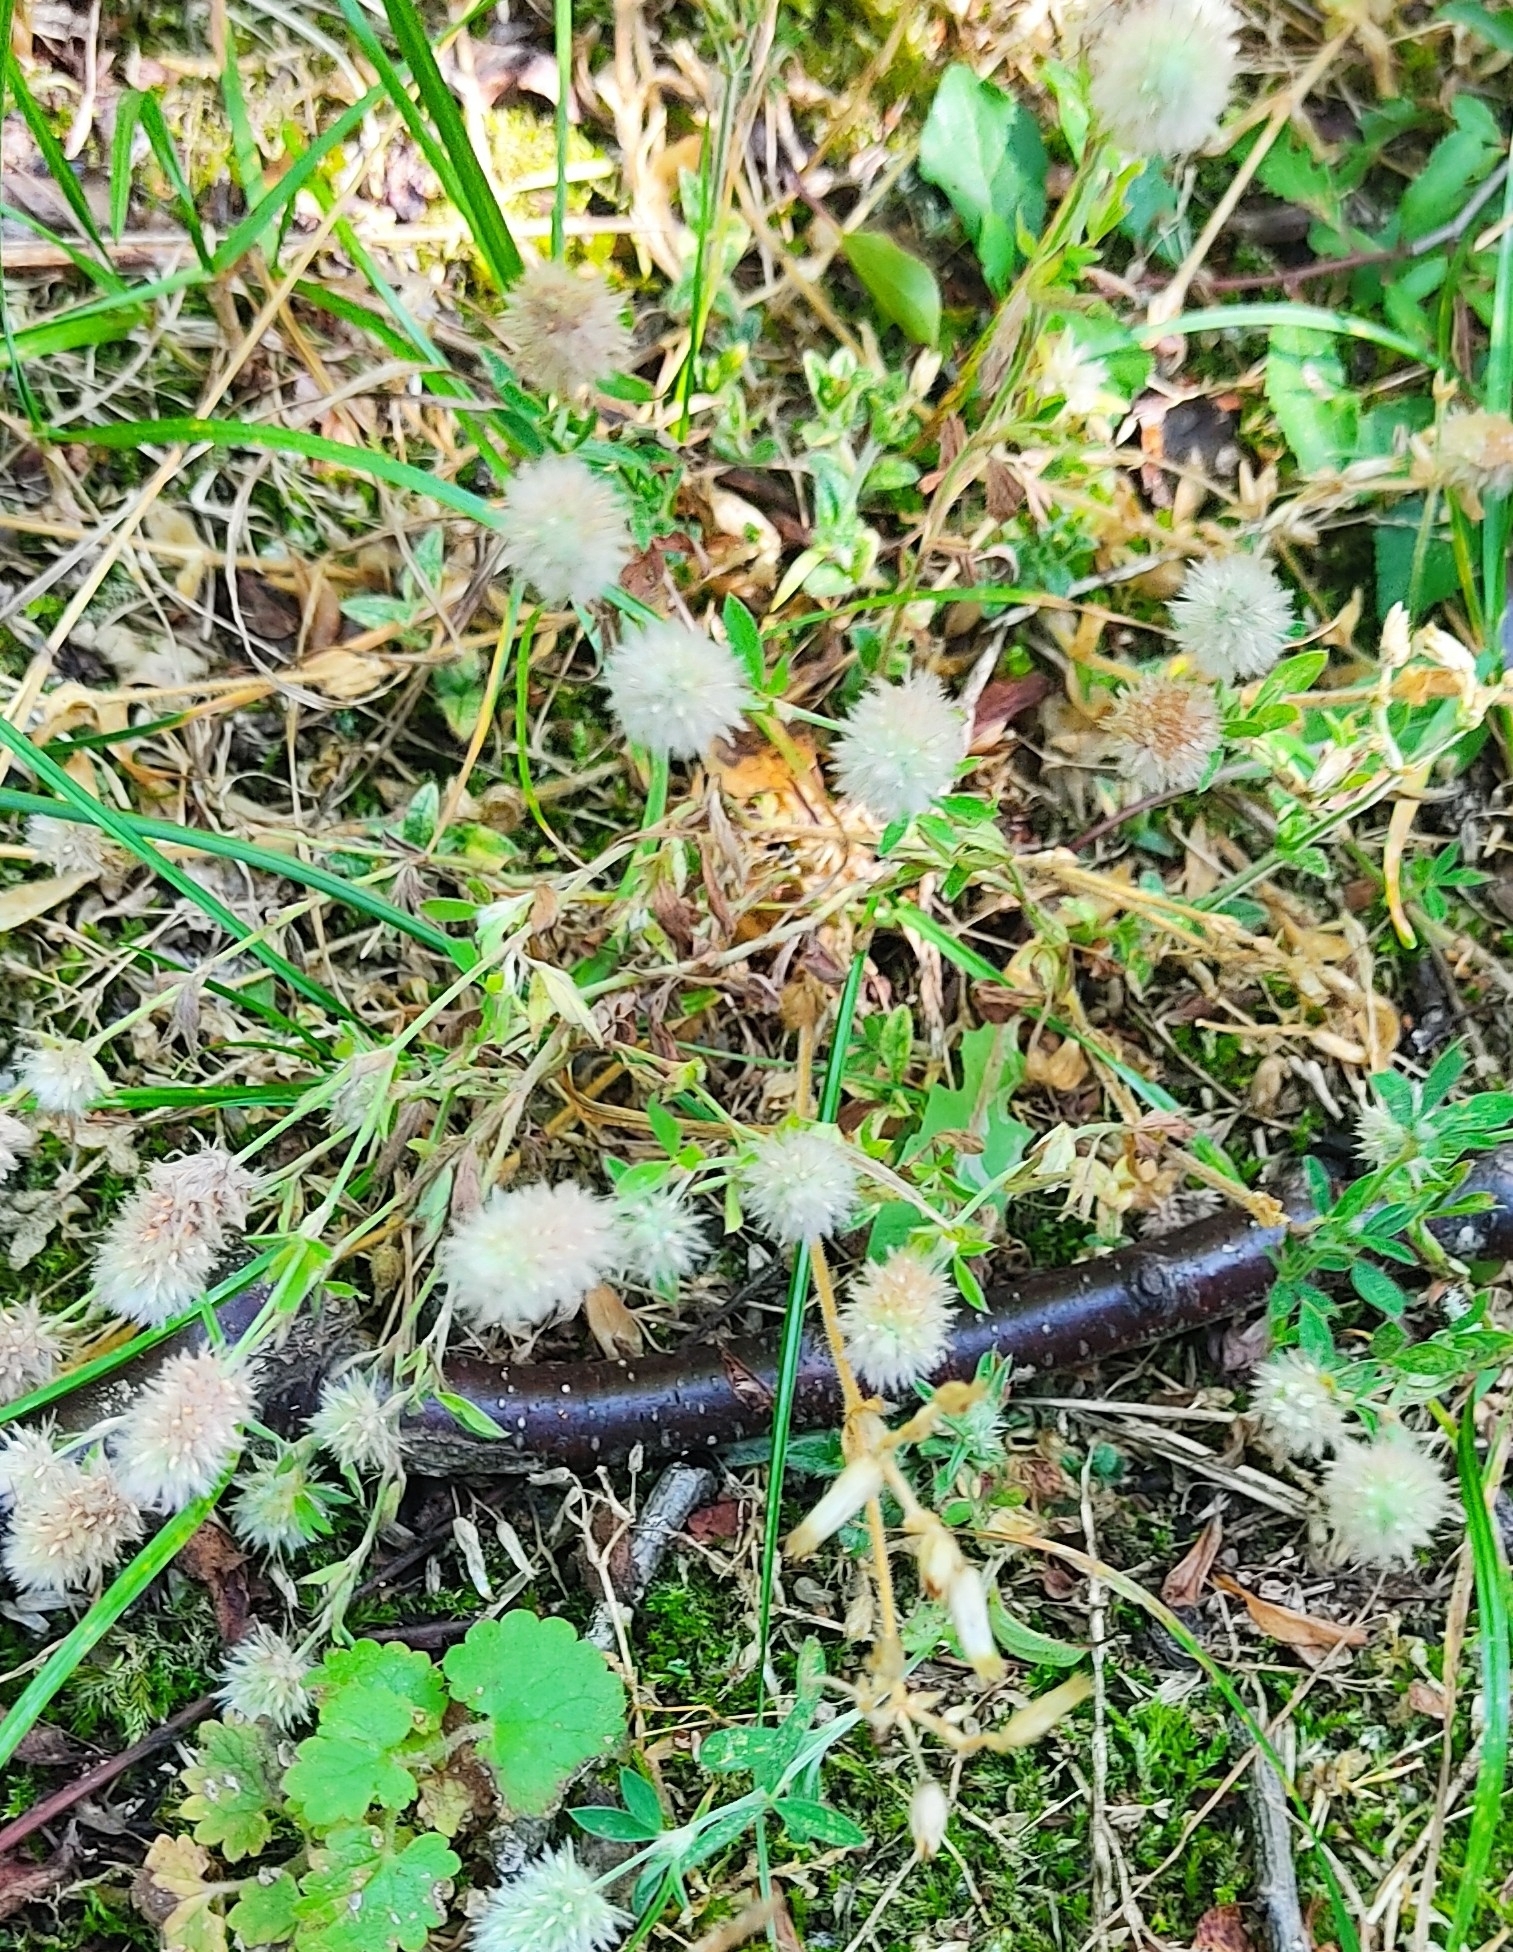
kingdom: Plantae
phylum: Tracheophyta
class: Magnoliopsida
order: Fabales
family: Fabaceae
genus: Trifolium
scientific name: Trifolium arvense
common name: Hare's-foot clover
